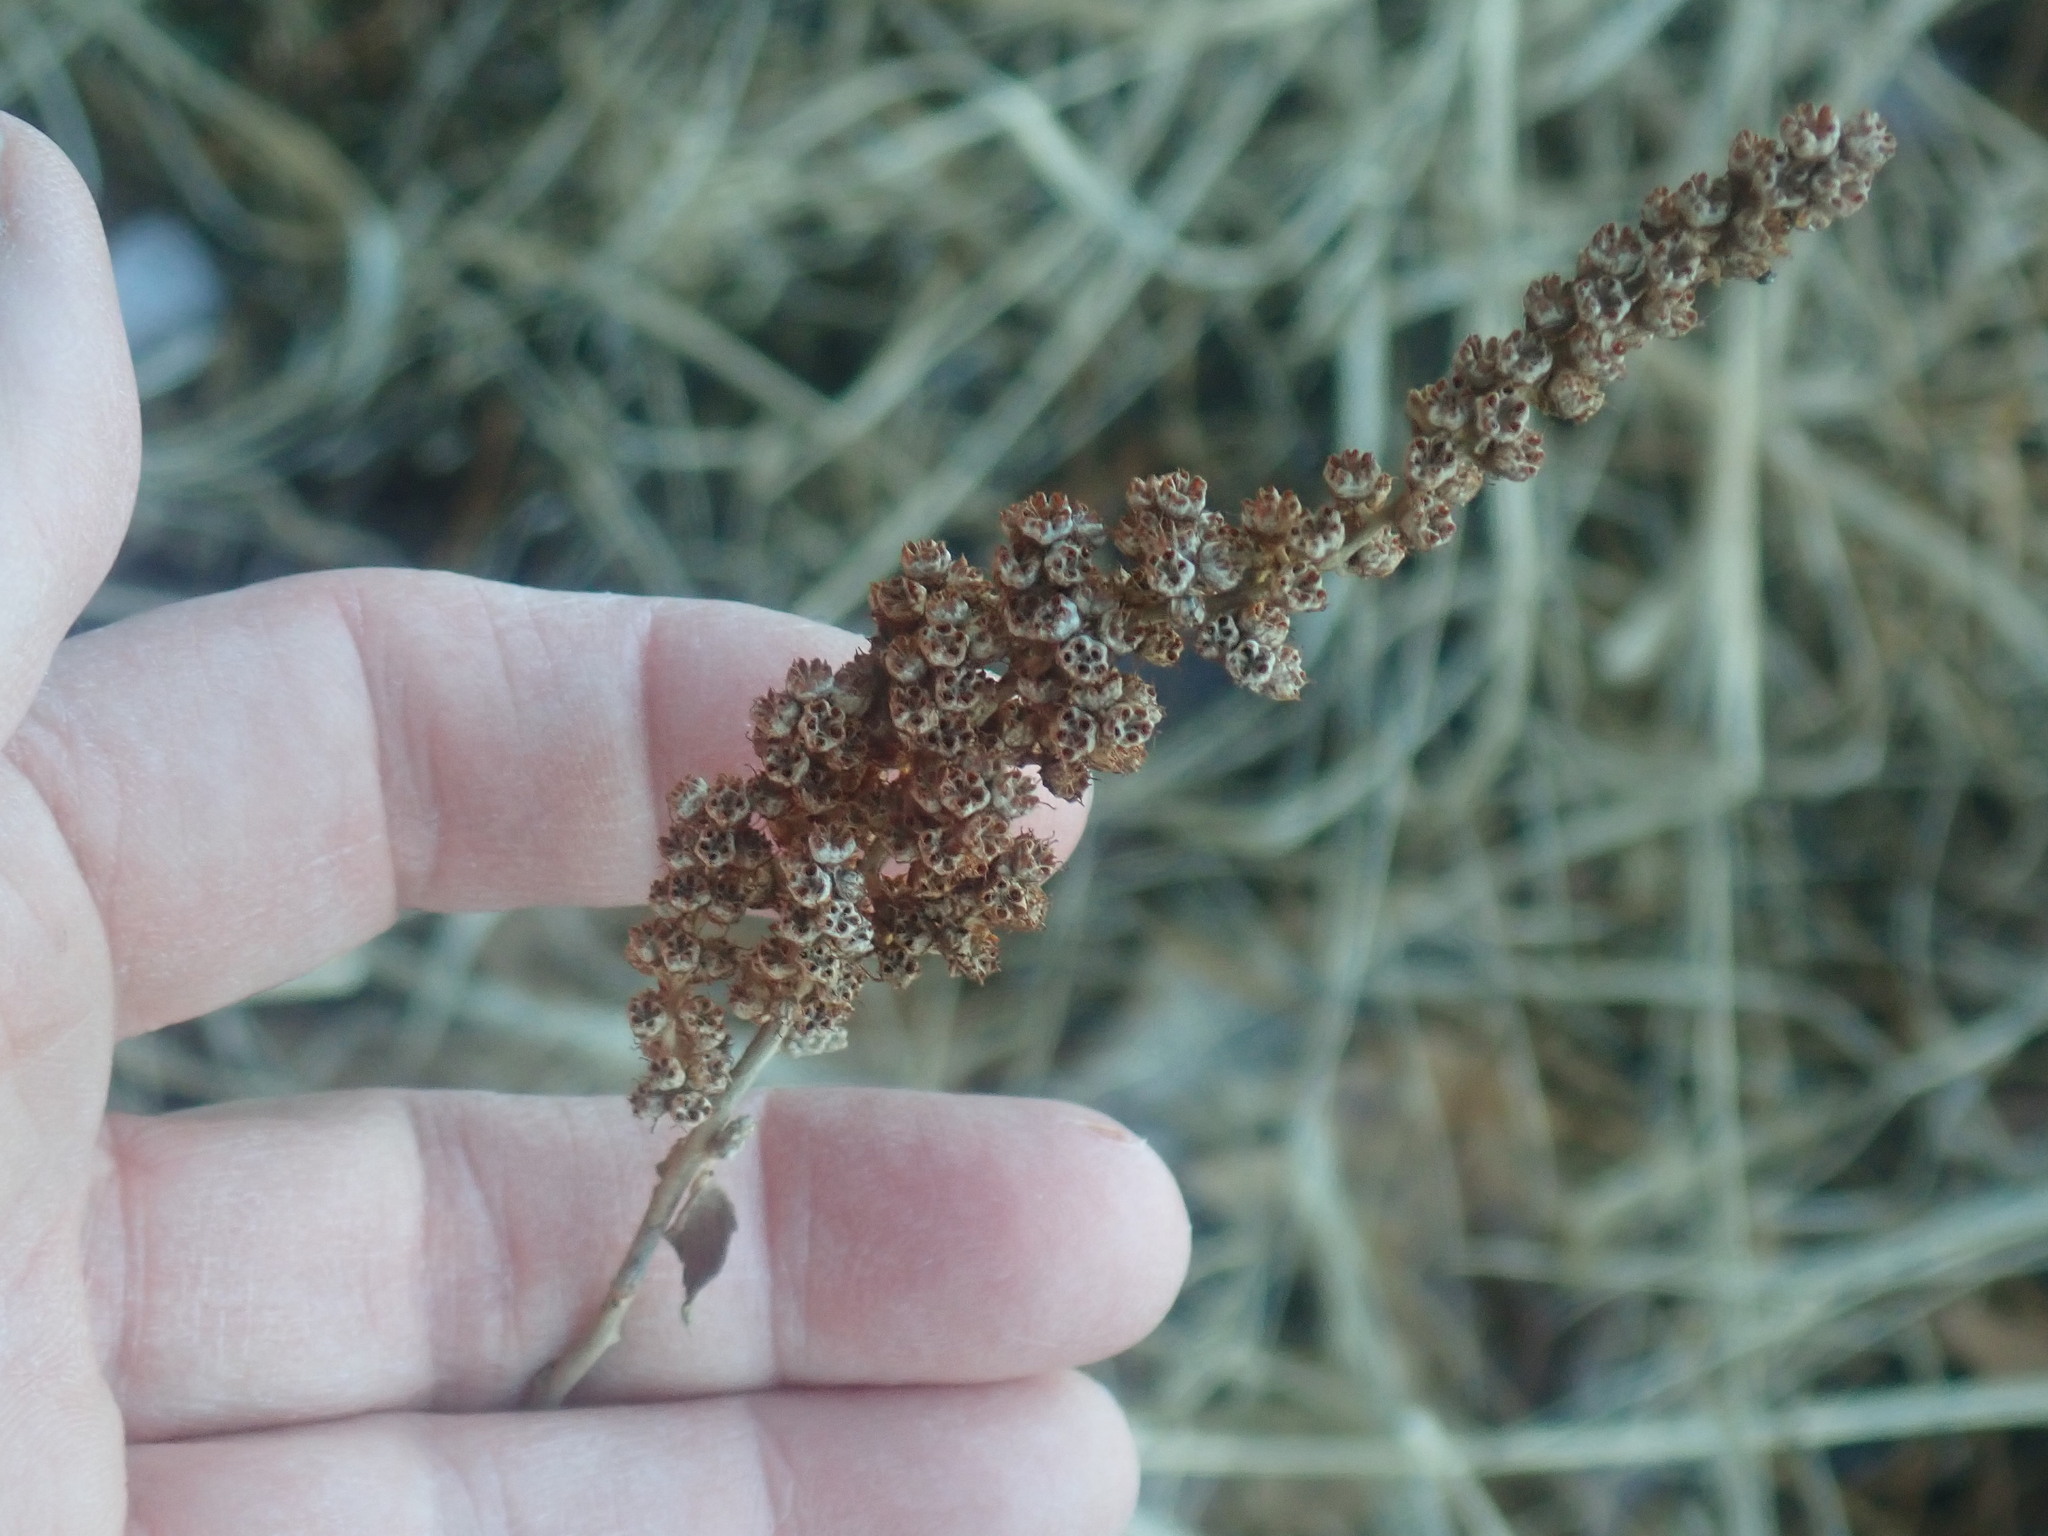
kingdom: Plantae
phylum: Tracheophyta
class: Magnoliopsida
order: Rosales
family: Rosaceae
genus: Spiraea
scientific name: Spiraea tomentosa
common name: Hardhack
